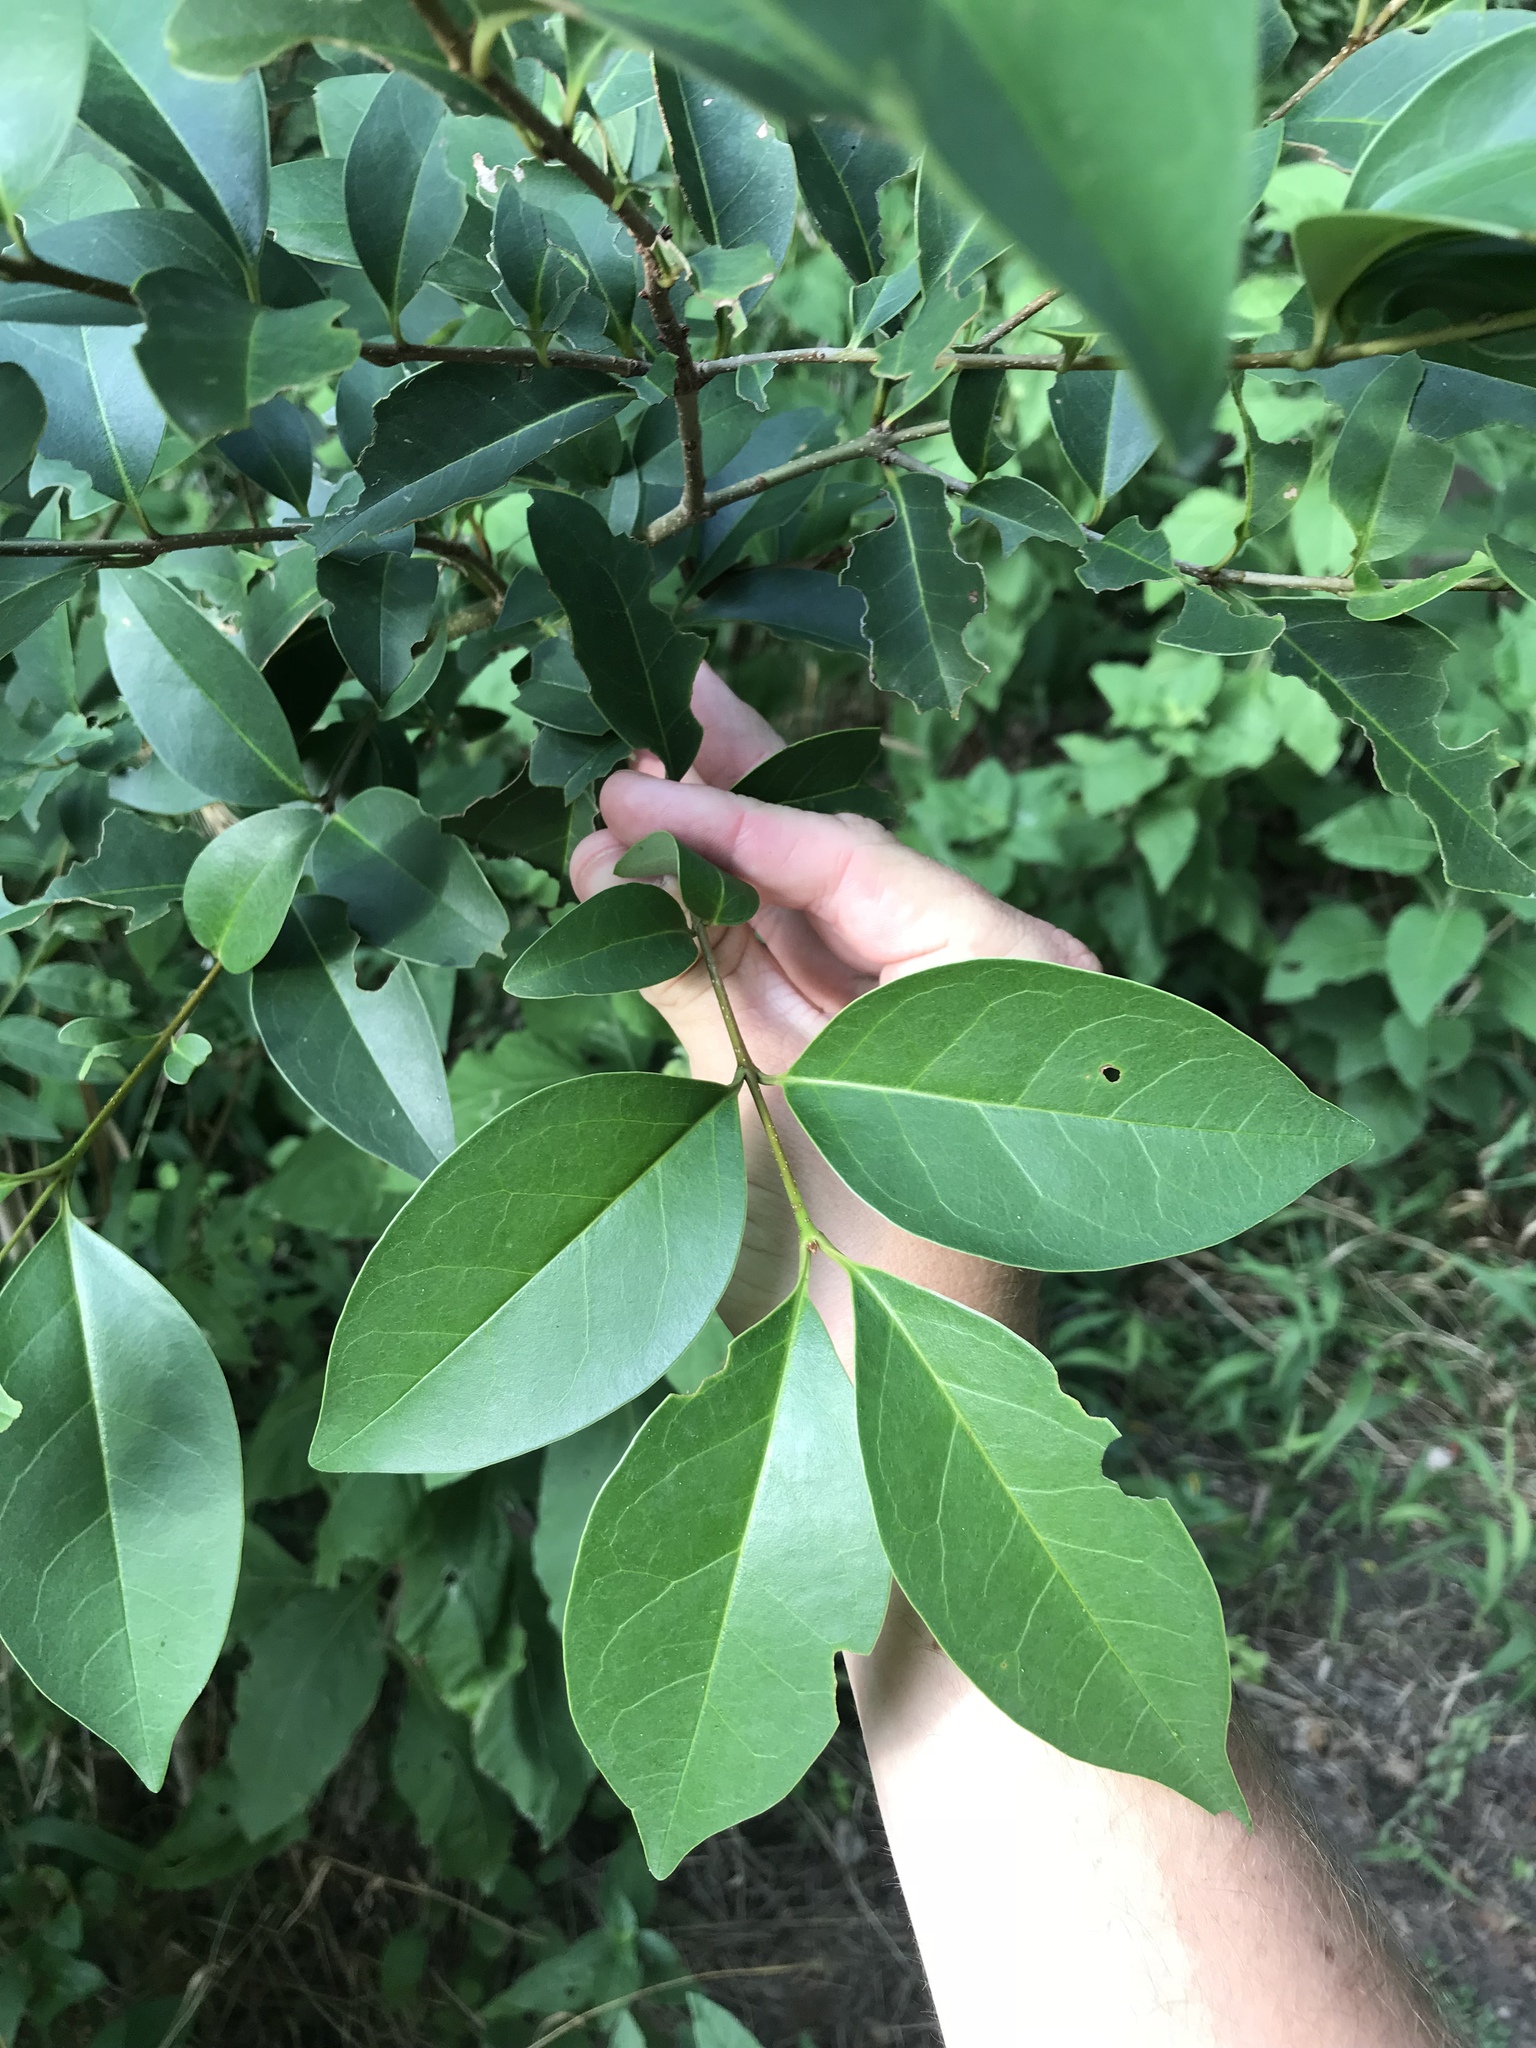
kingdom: Plantae
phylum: Tracheophyta
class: Magnoliopsida
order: Lamiales
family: Oleaceae
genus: Ligustrum
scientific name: Ligustrum lucidum
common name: Glossy privet
